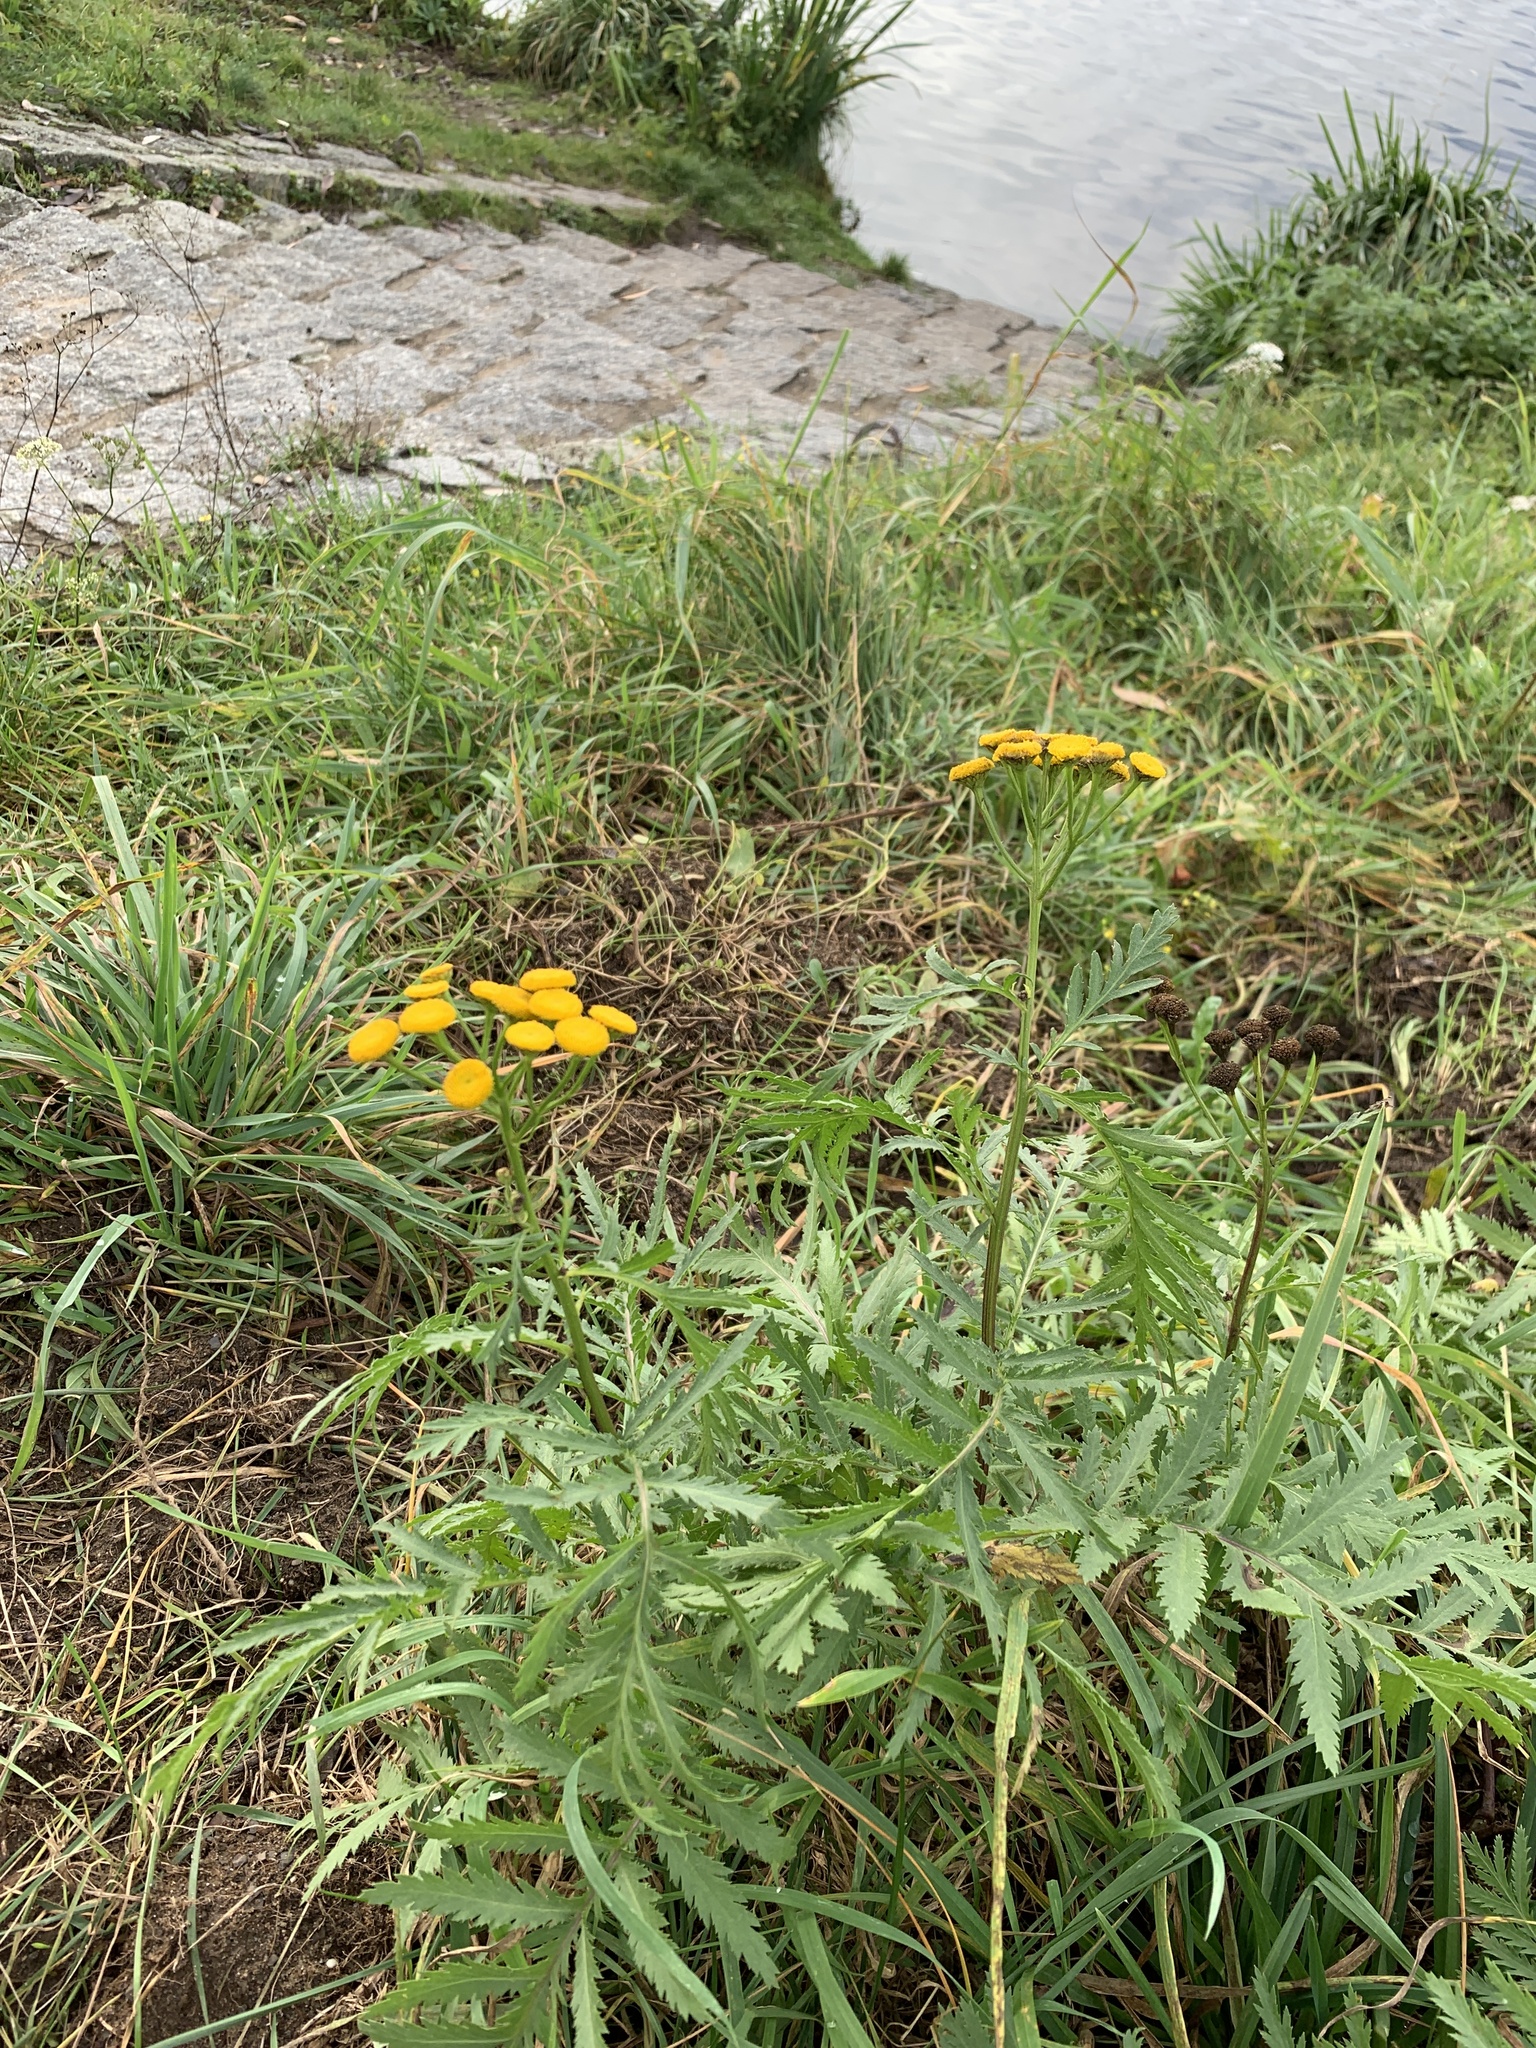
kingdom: Plantae
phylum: Tracheophyta
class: Magnoliopsida
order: Asterales
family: Asteraceae
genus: Tanacetum
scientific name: Tanacetum vulgare
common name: Common tansy
